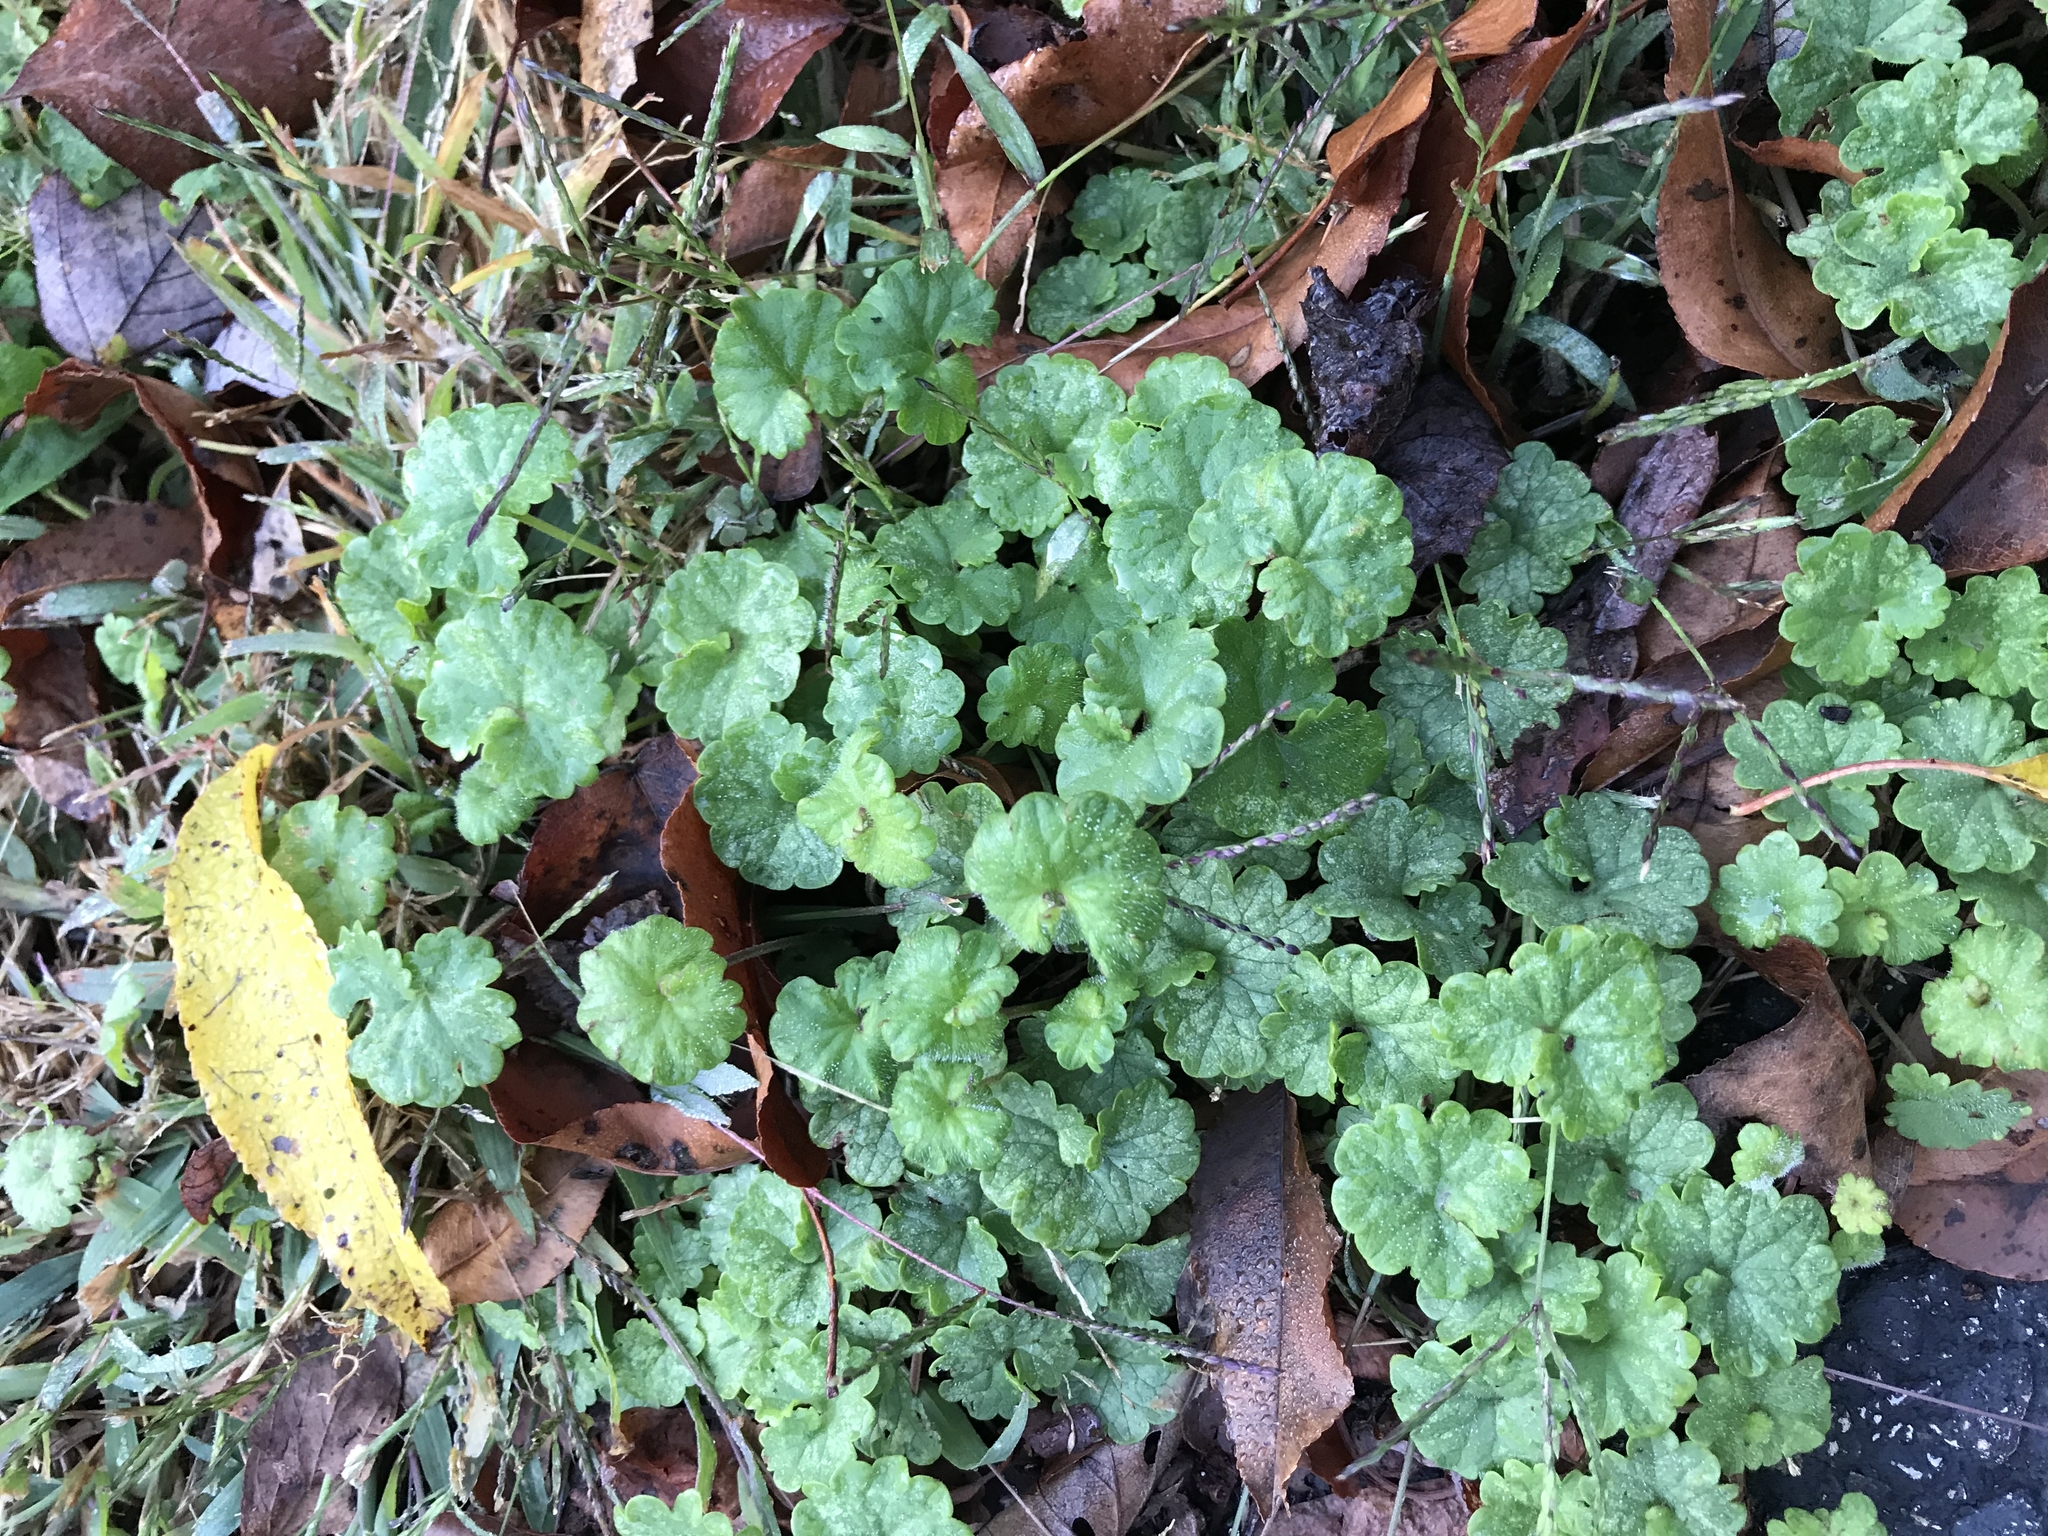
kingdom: Plantae
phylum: Tracheophyta
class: Magnoliopsida
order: Lamiales
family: Lamiaceae
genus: Glechoma
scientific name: Glechoma hederacea
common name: Ground ivy
